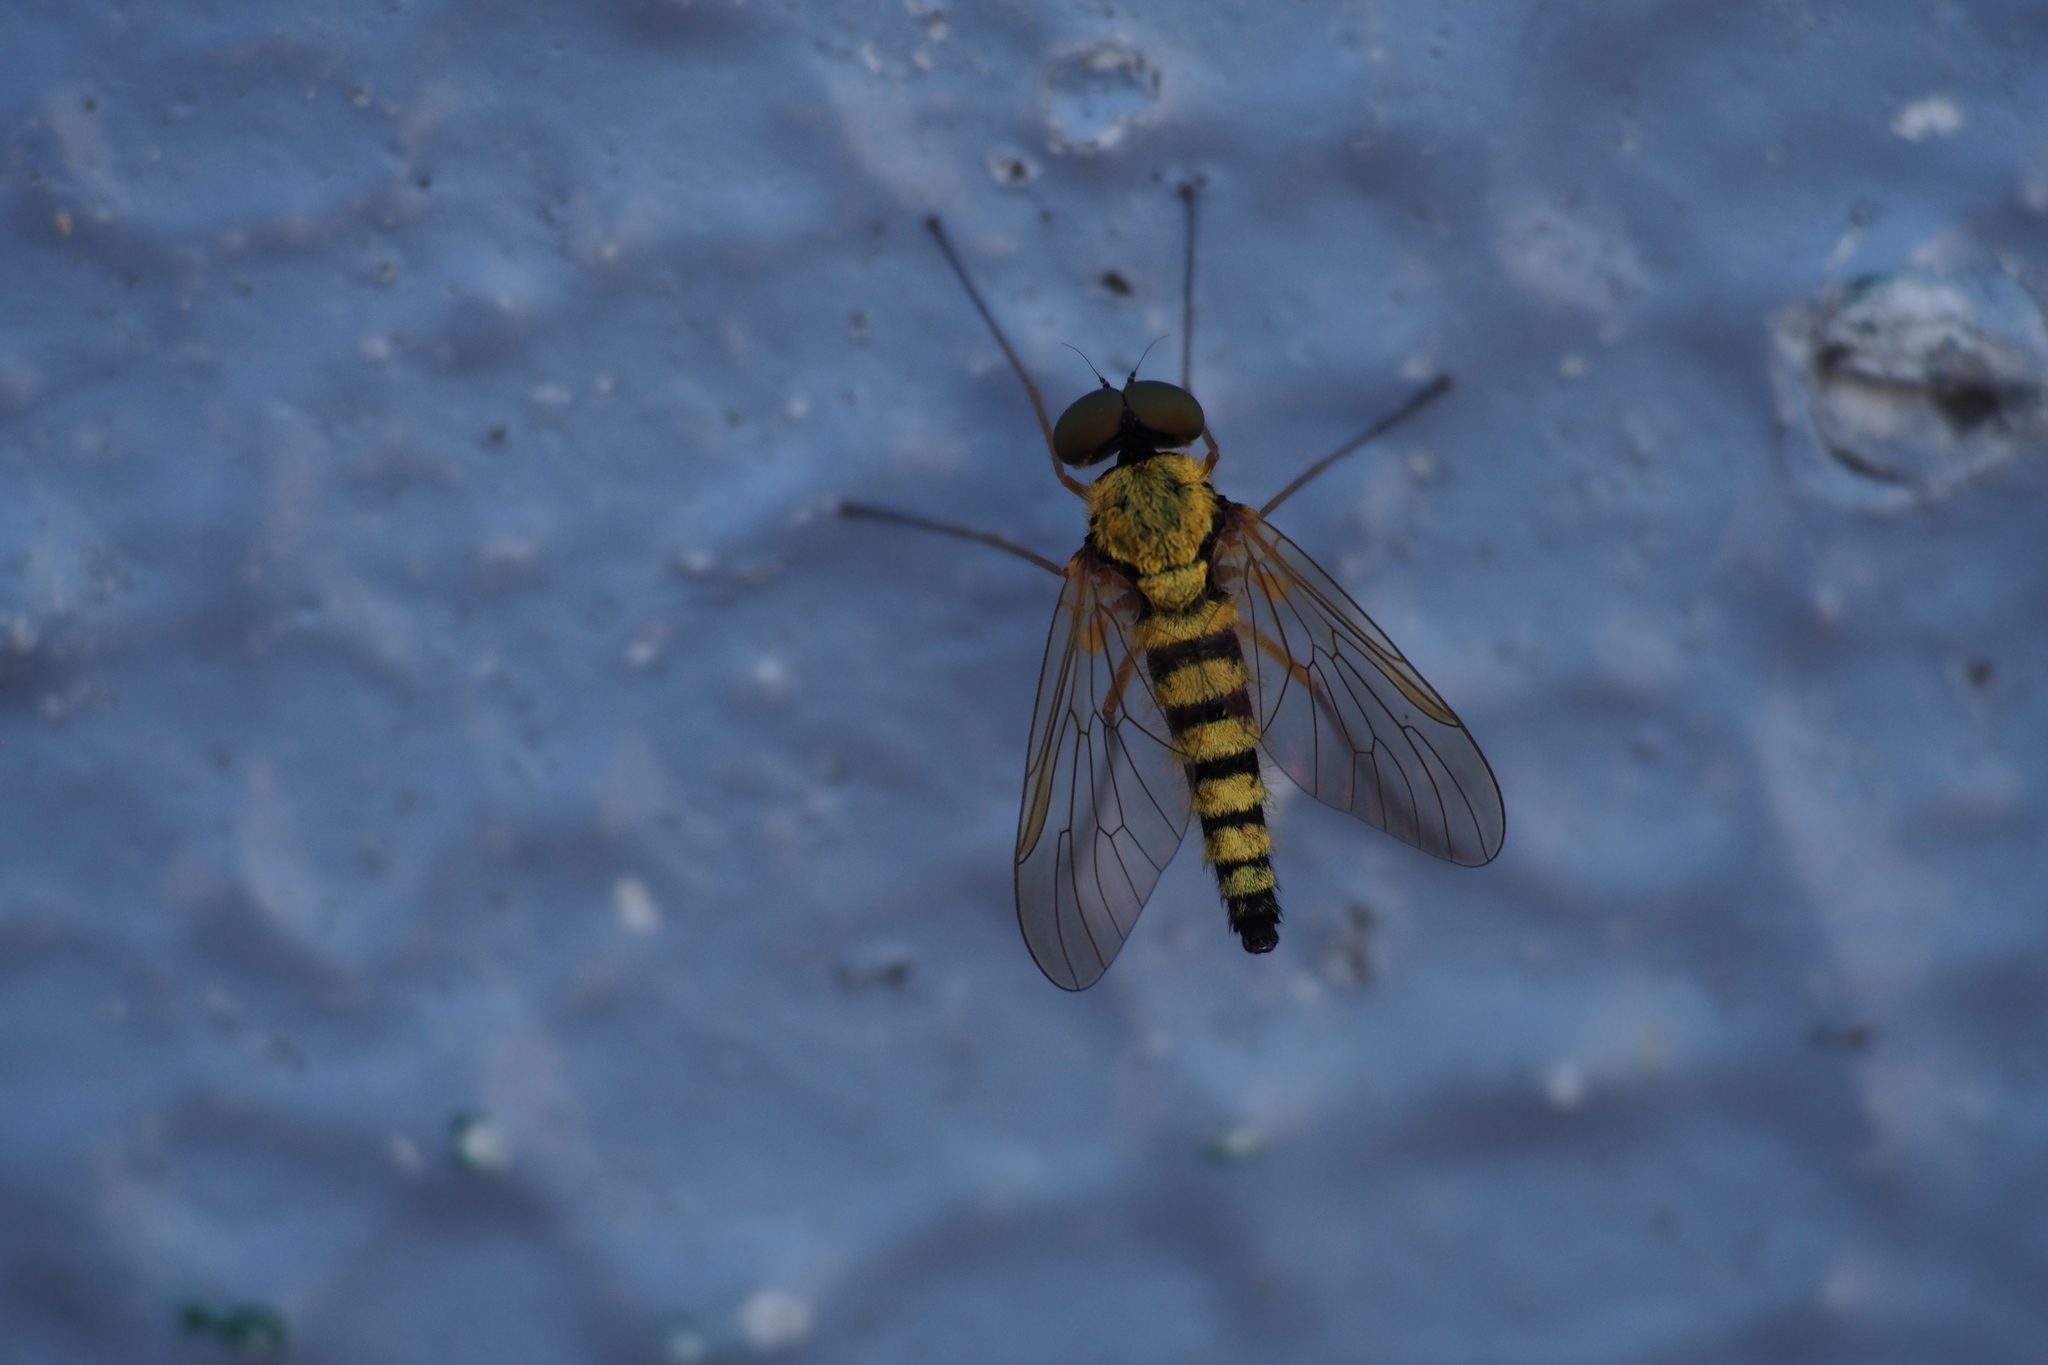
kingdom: Animalia
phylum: Arthropoda
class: Insecta
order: Diptera
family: Rhagionidae
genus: Chrysopilus
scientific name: Chrysopilus ditissimis
